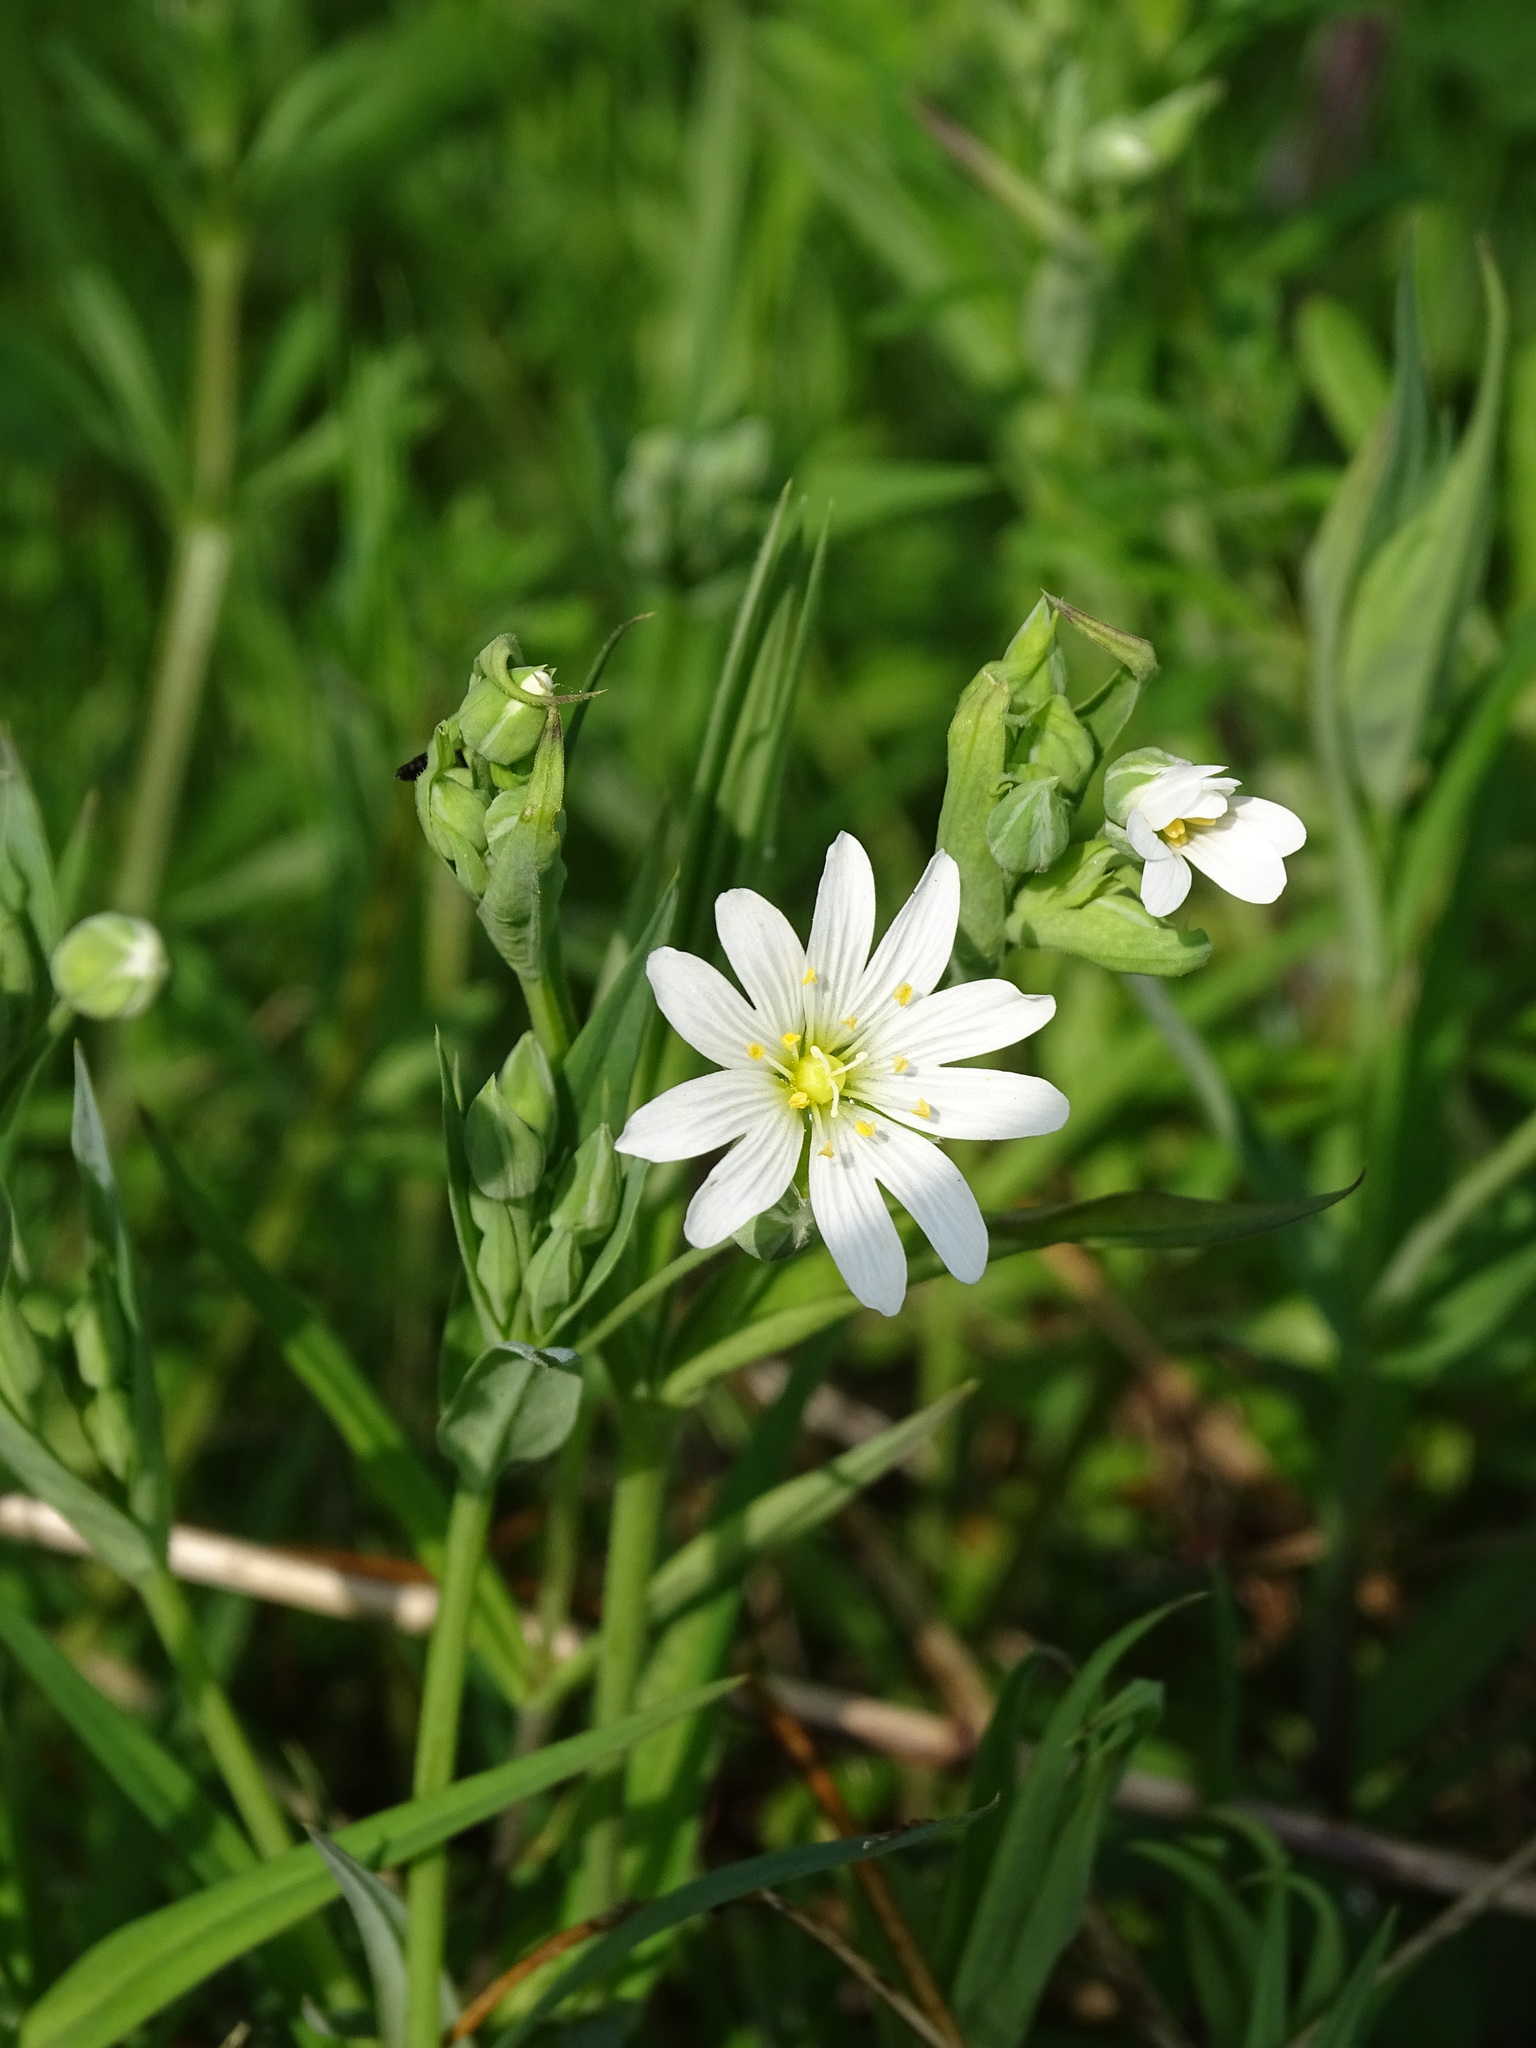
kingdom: Plantae
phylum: Tracheophyta
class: Magnoliopsida
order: Caryophyllales
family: Caryophyllaceae
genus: Rabelera
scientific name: Rabelera holostea
